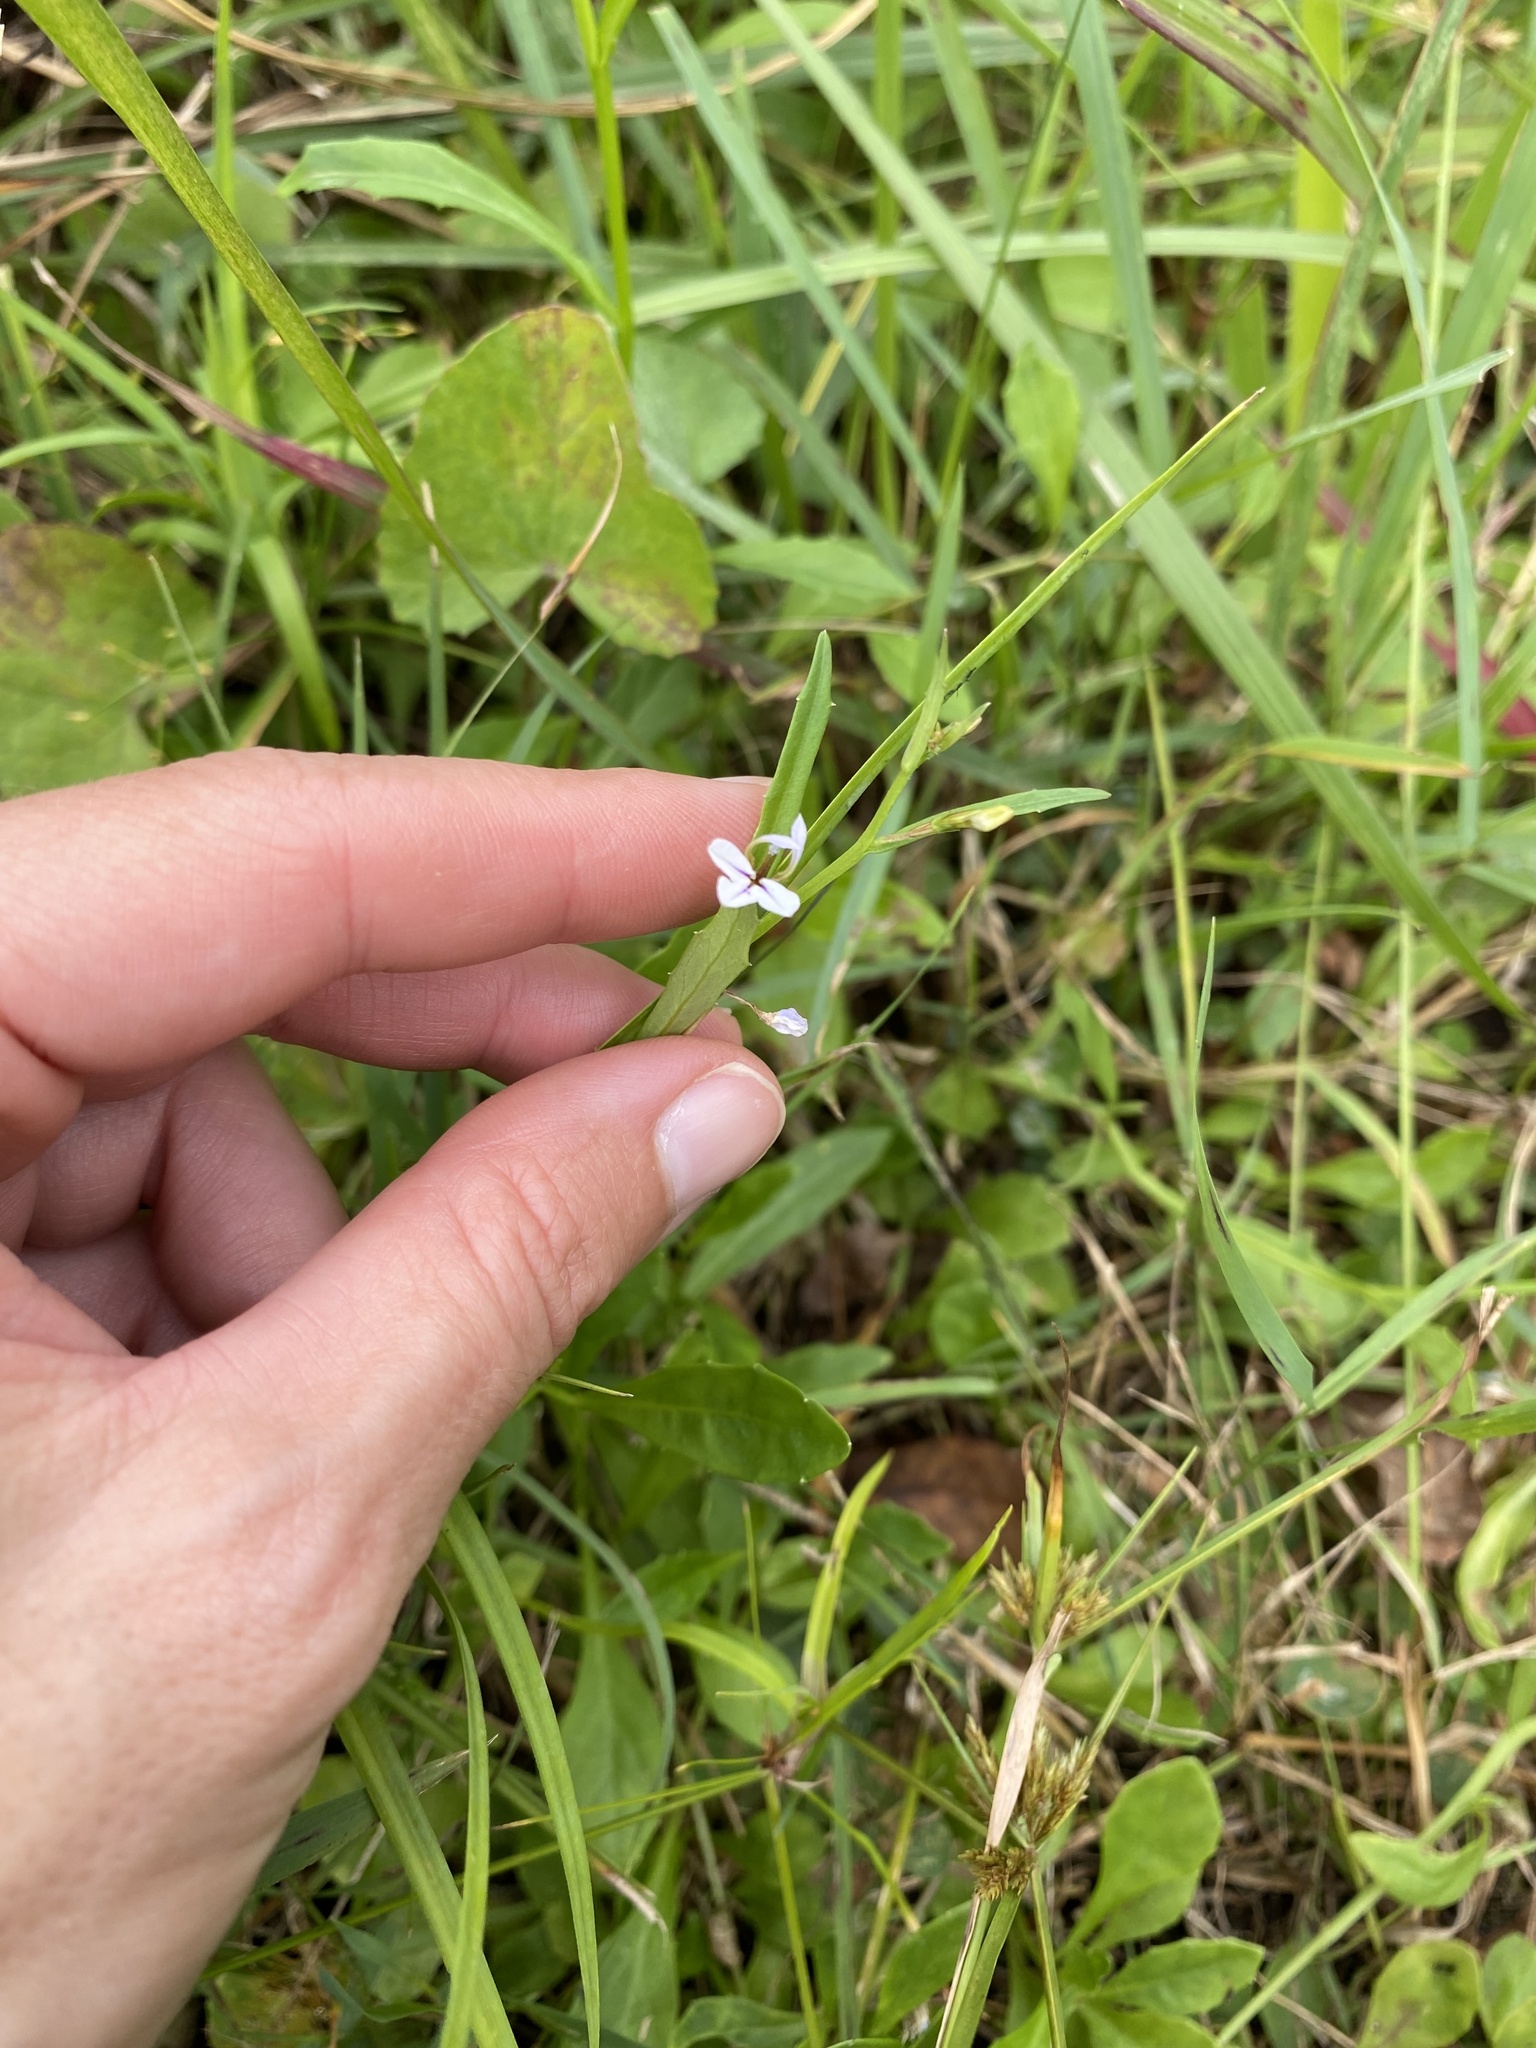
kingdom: Plantae
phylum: Tracheophyta
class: Magnoliopsida
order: Asterales
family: Campanulaceae
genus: Lobelia
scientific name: Lobelia anceps
